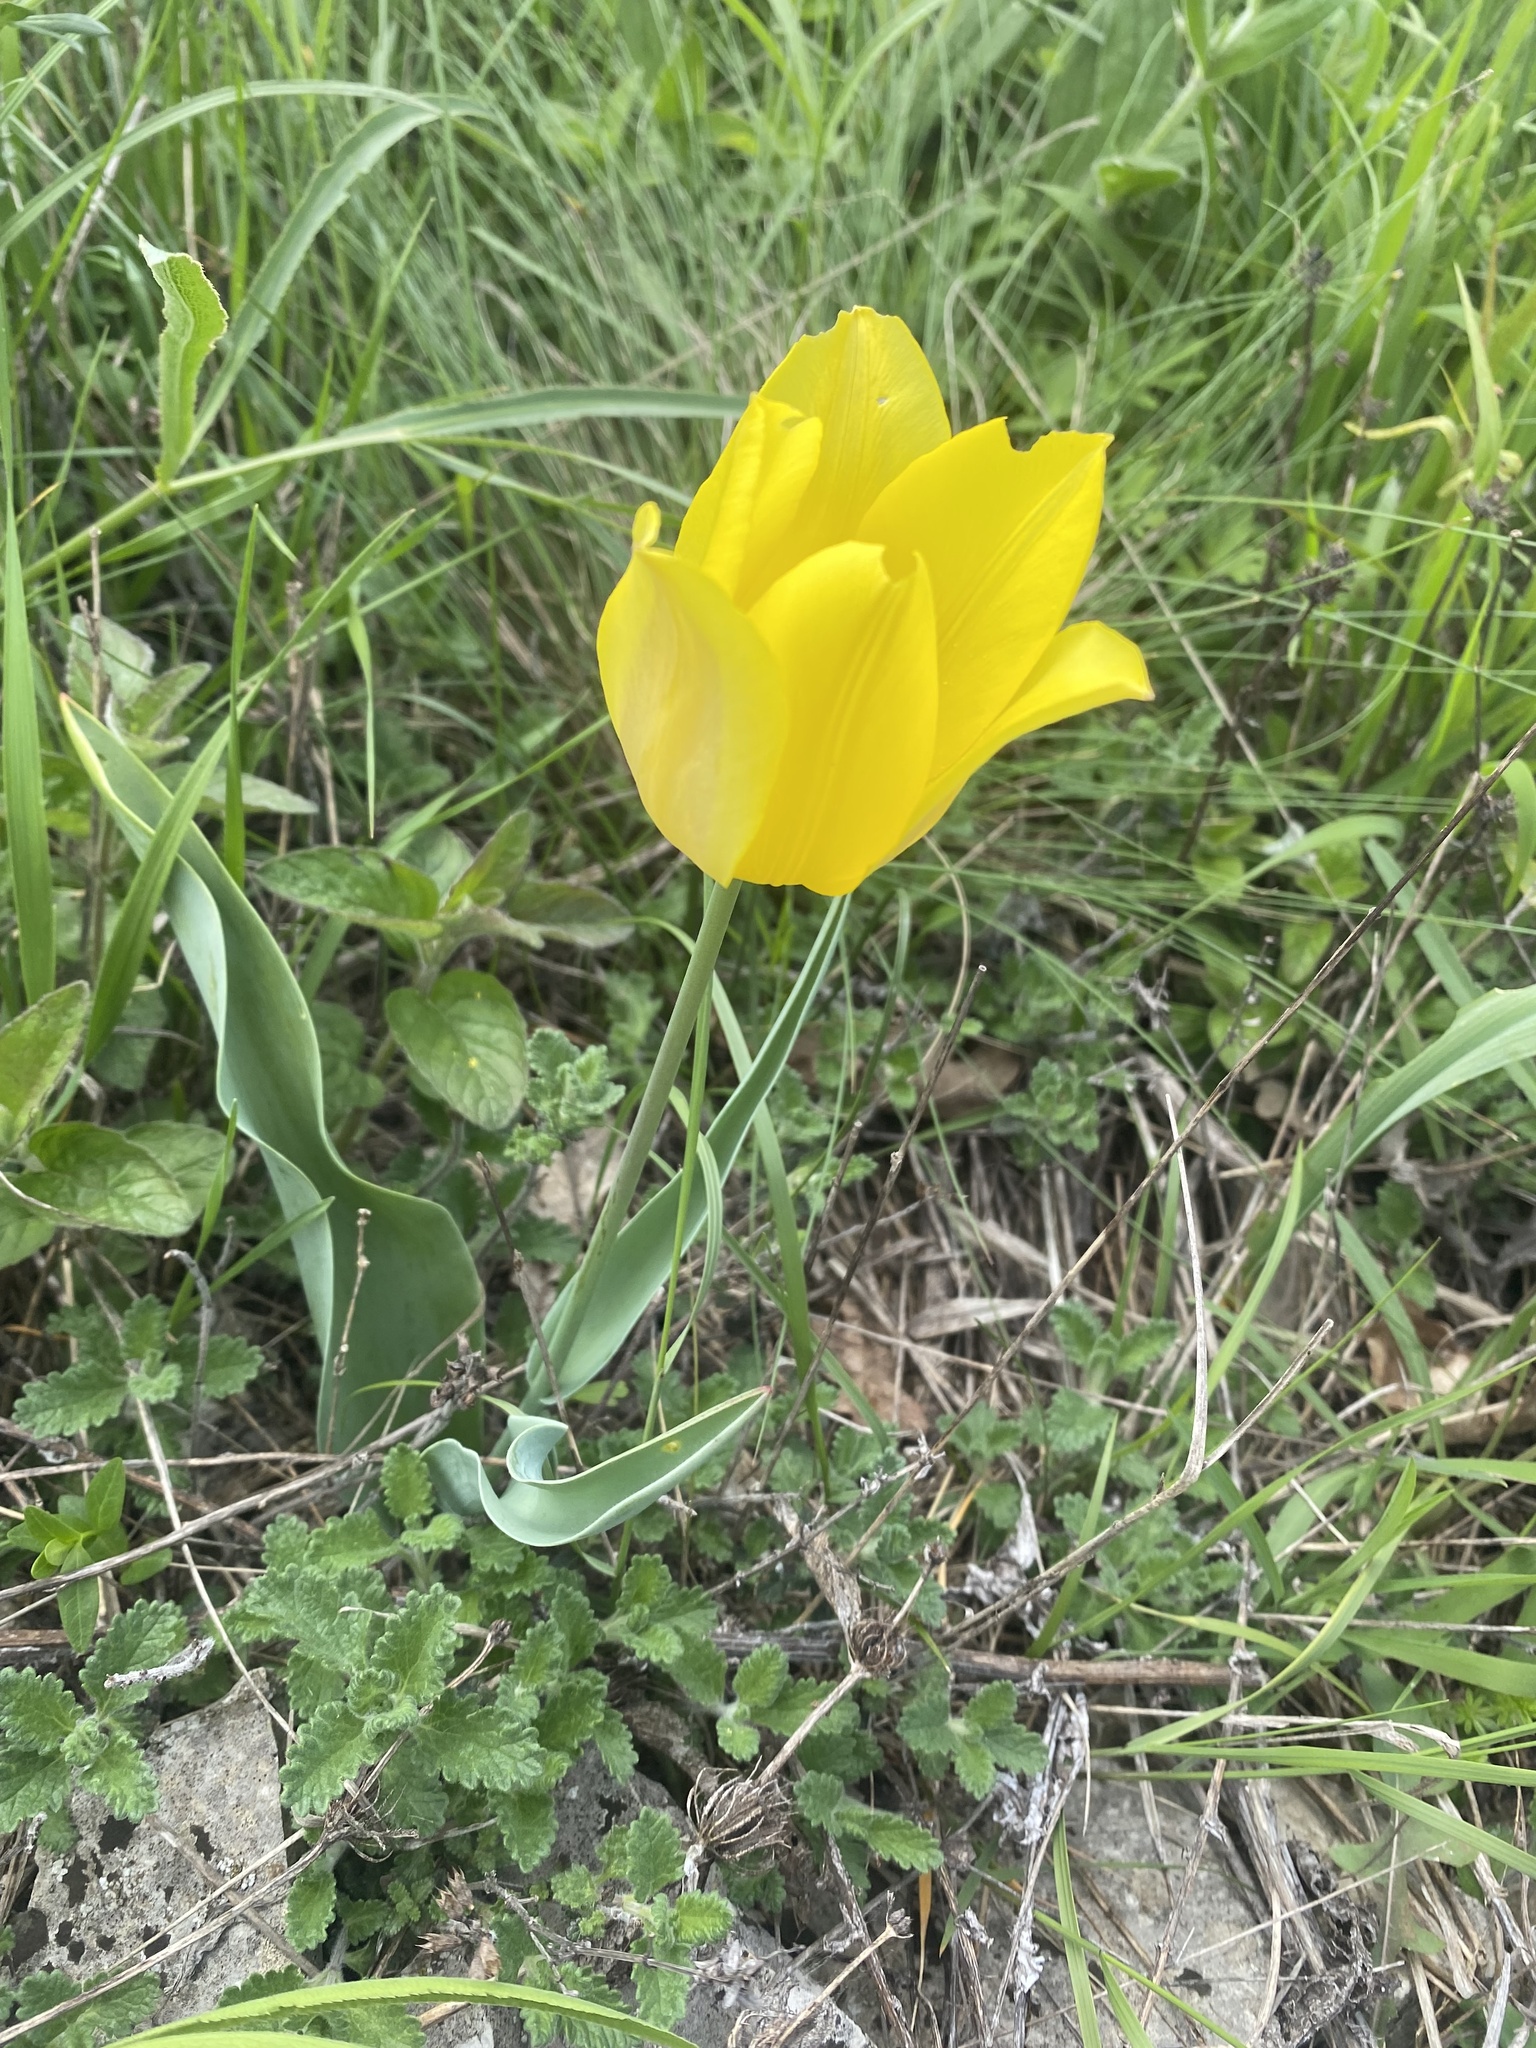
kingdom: Plantae
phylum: Tracheophyta
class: Liliopsida
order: Liliales
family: Liliaceae
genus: Tulipa
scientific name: Tulipa suaveolens
